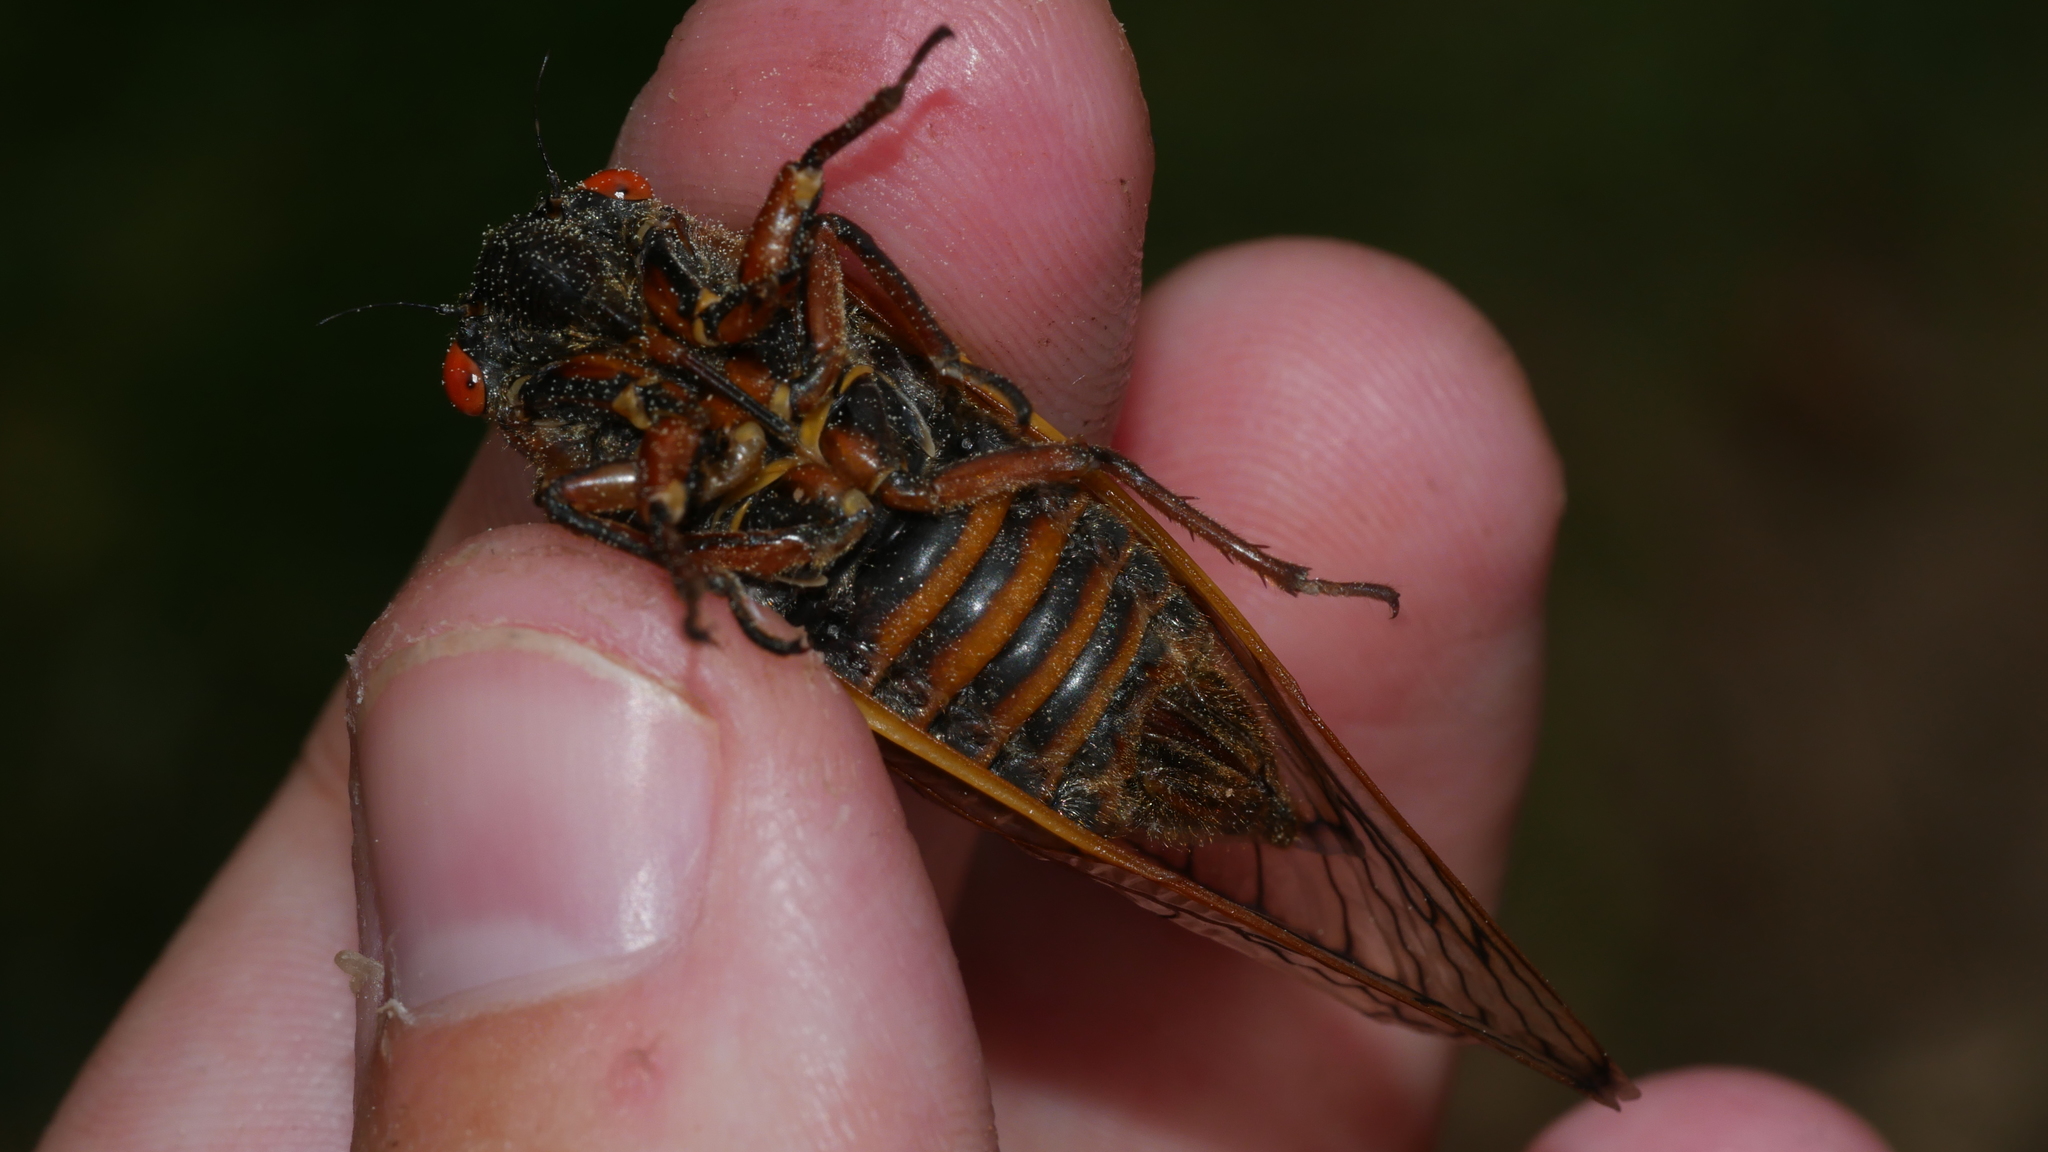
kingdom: Animalia
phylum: Arthropoda
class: Insecta
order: Hemiptera
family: Cicadidae
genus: Magicicada
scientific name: Magicicada septendecim
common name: Periodical cicada
